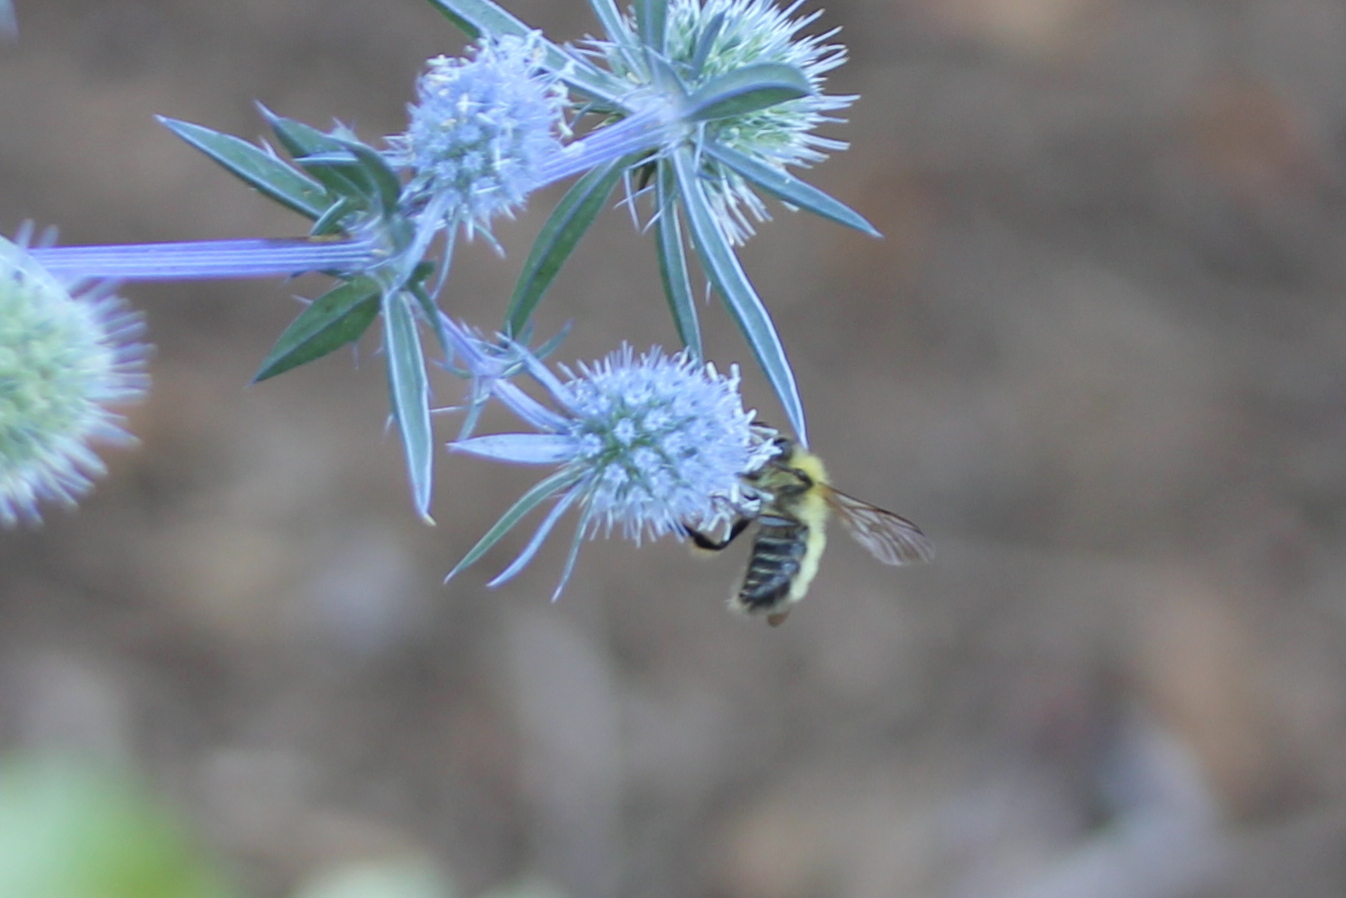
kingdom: Animalia
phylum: Arthropoda
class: Insecta
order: Hymenoptera
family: Apidae
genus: Bombus
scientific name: Bombus perplexus
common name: Confusing bumble bee
